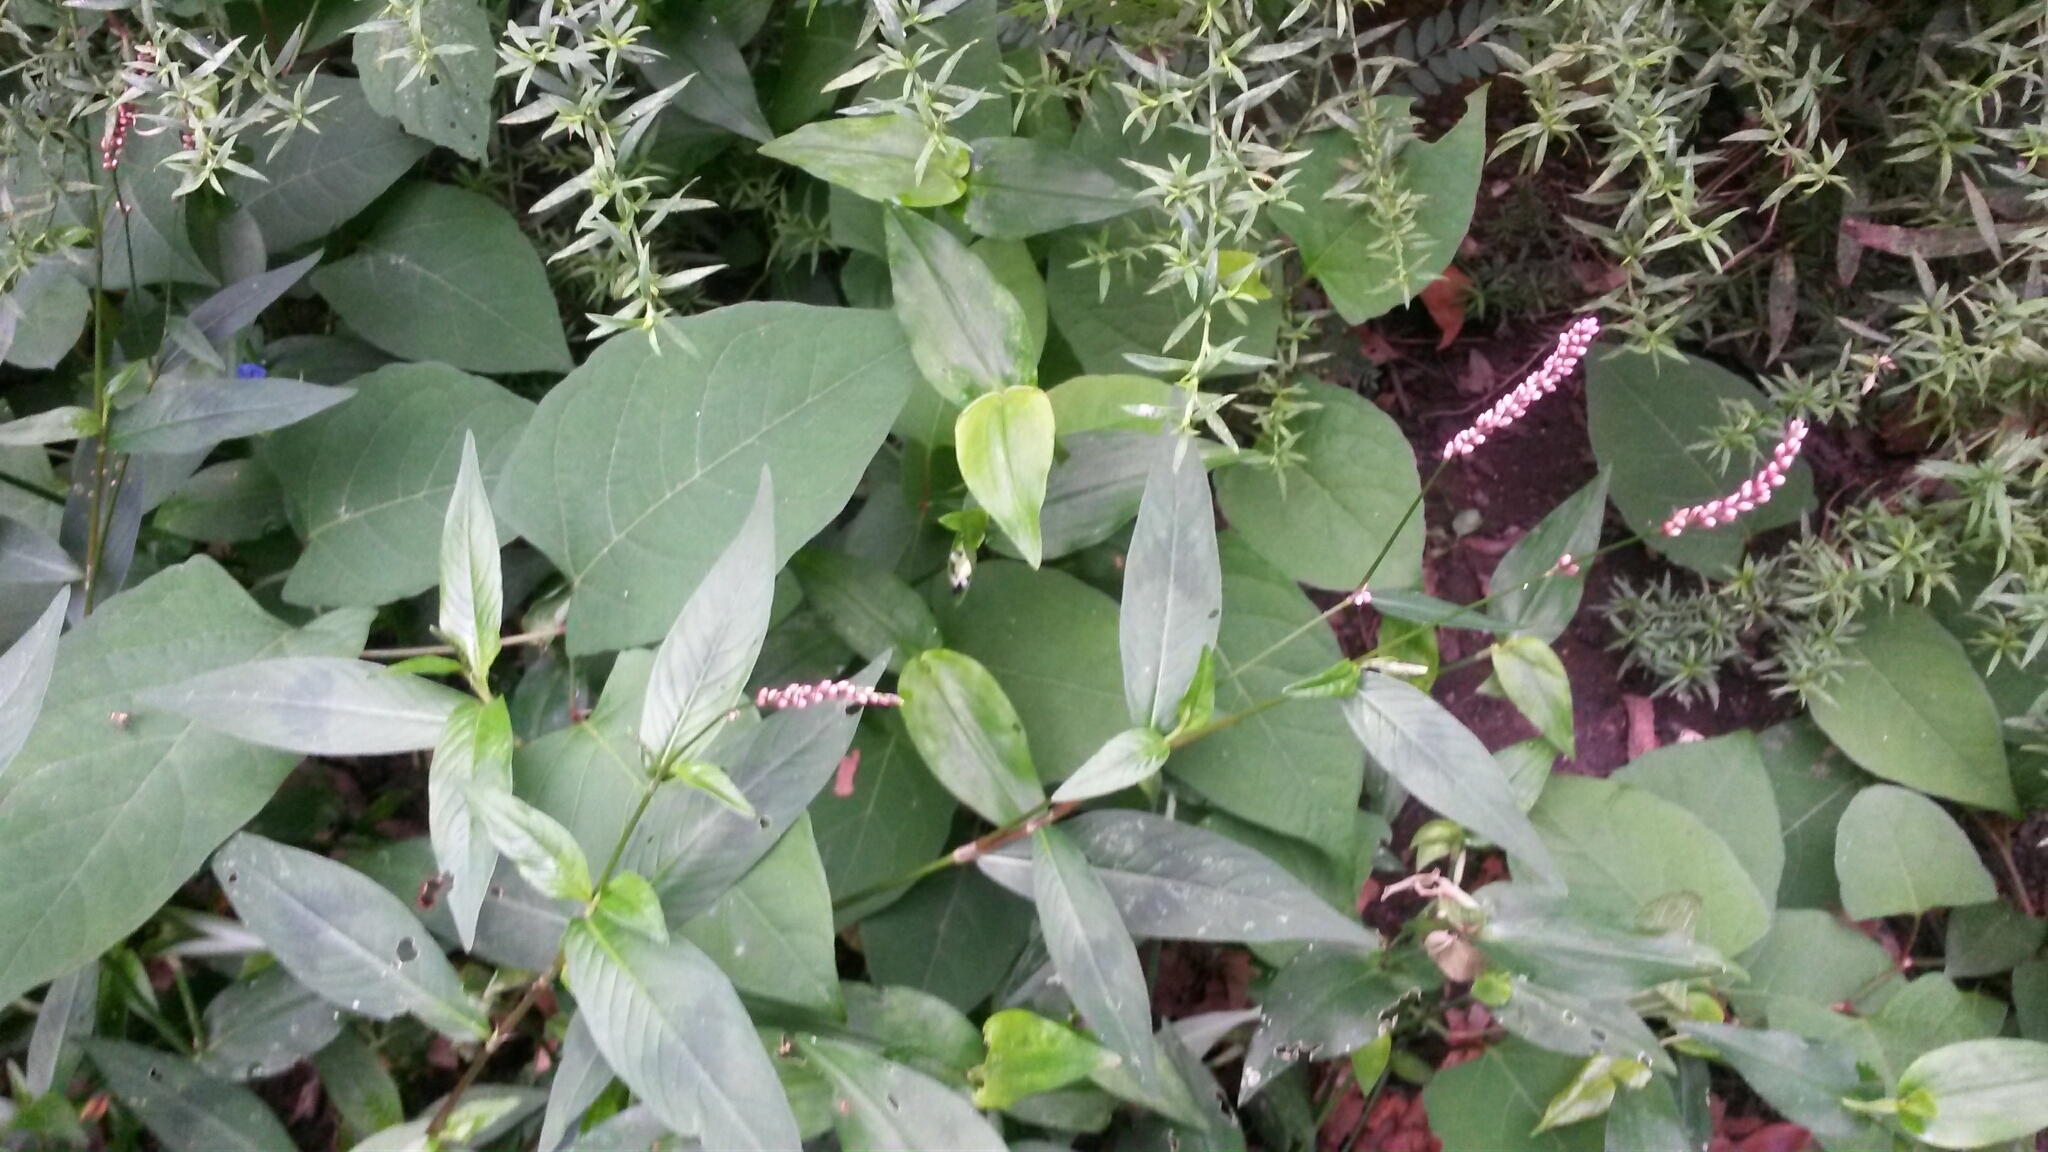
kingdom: Plantae
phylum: Tracheophyta
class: Magnoliopsida
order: Caryophyllales
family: Polygonaceae
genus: Persicaria
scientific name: Persicaria longiseta
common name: Bristly lady's-thumb
